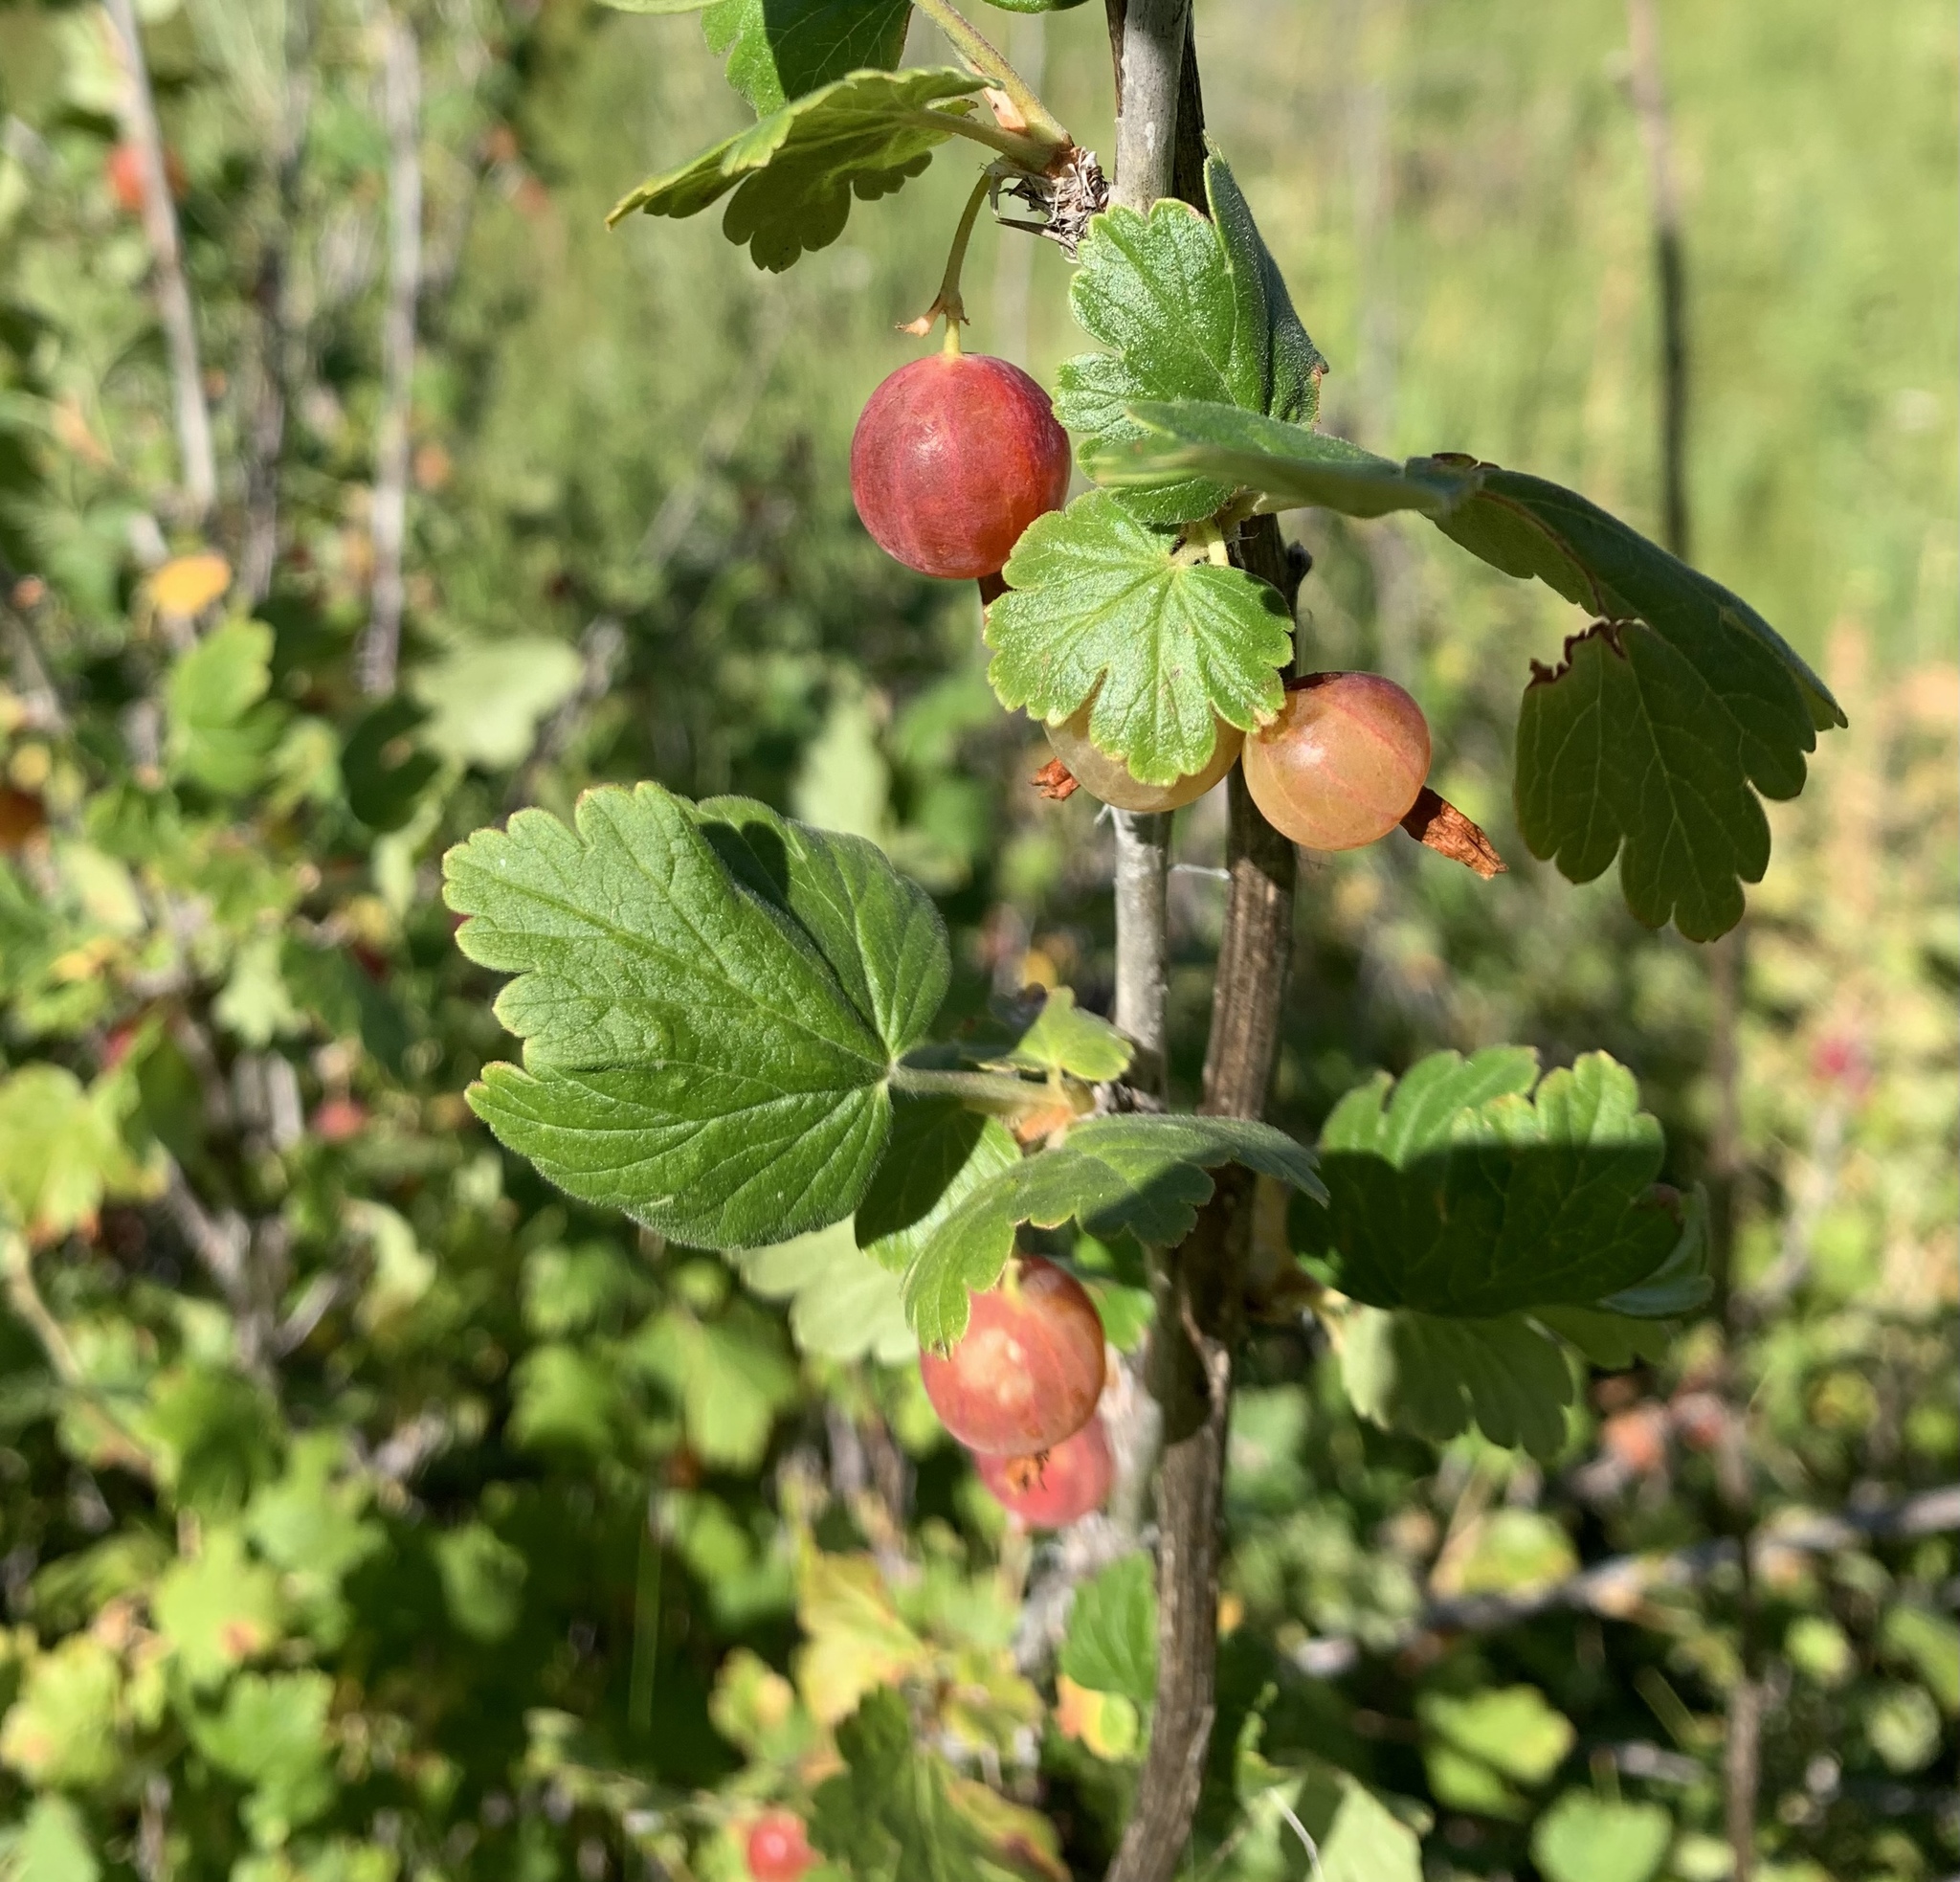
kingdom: Plantae
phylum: Tracheophyta
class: Magnoliopsida
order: Saxifragales
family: Grossulariaceae
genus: Ribes
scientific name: Ribes inerme
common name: White-stem gooseberry
